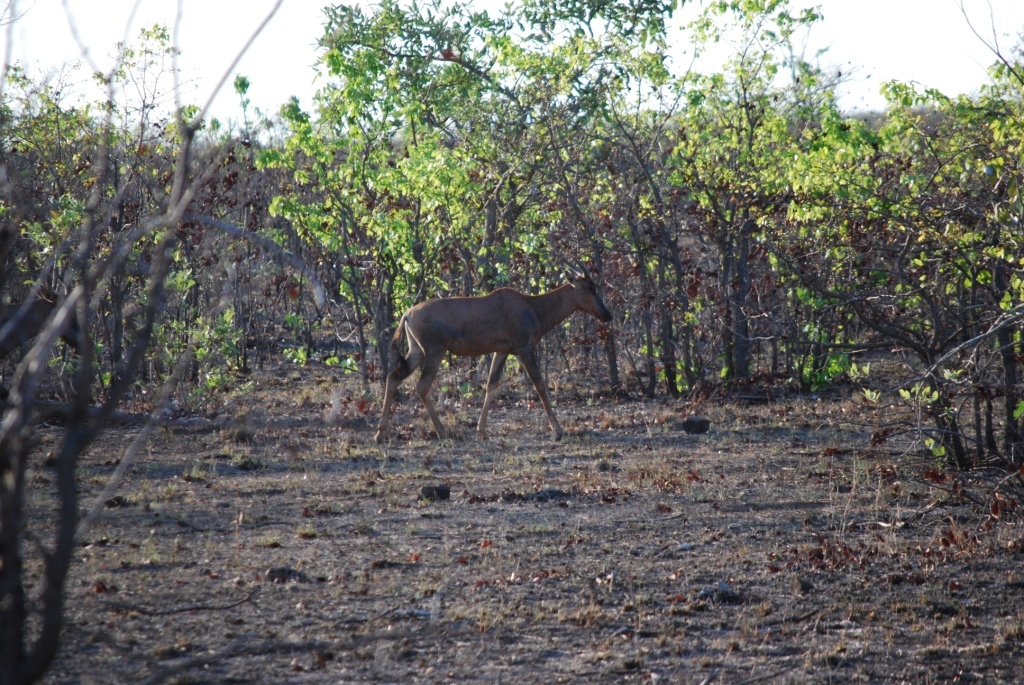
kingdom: Animalia
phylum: Chordata
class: Mammalia
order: Artiodactyla
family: Bovidae
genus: Damaliscus
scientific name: Damaliscus lunatus
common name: Common tsessebe
